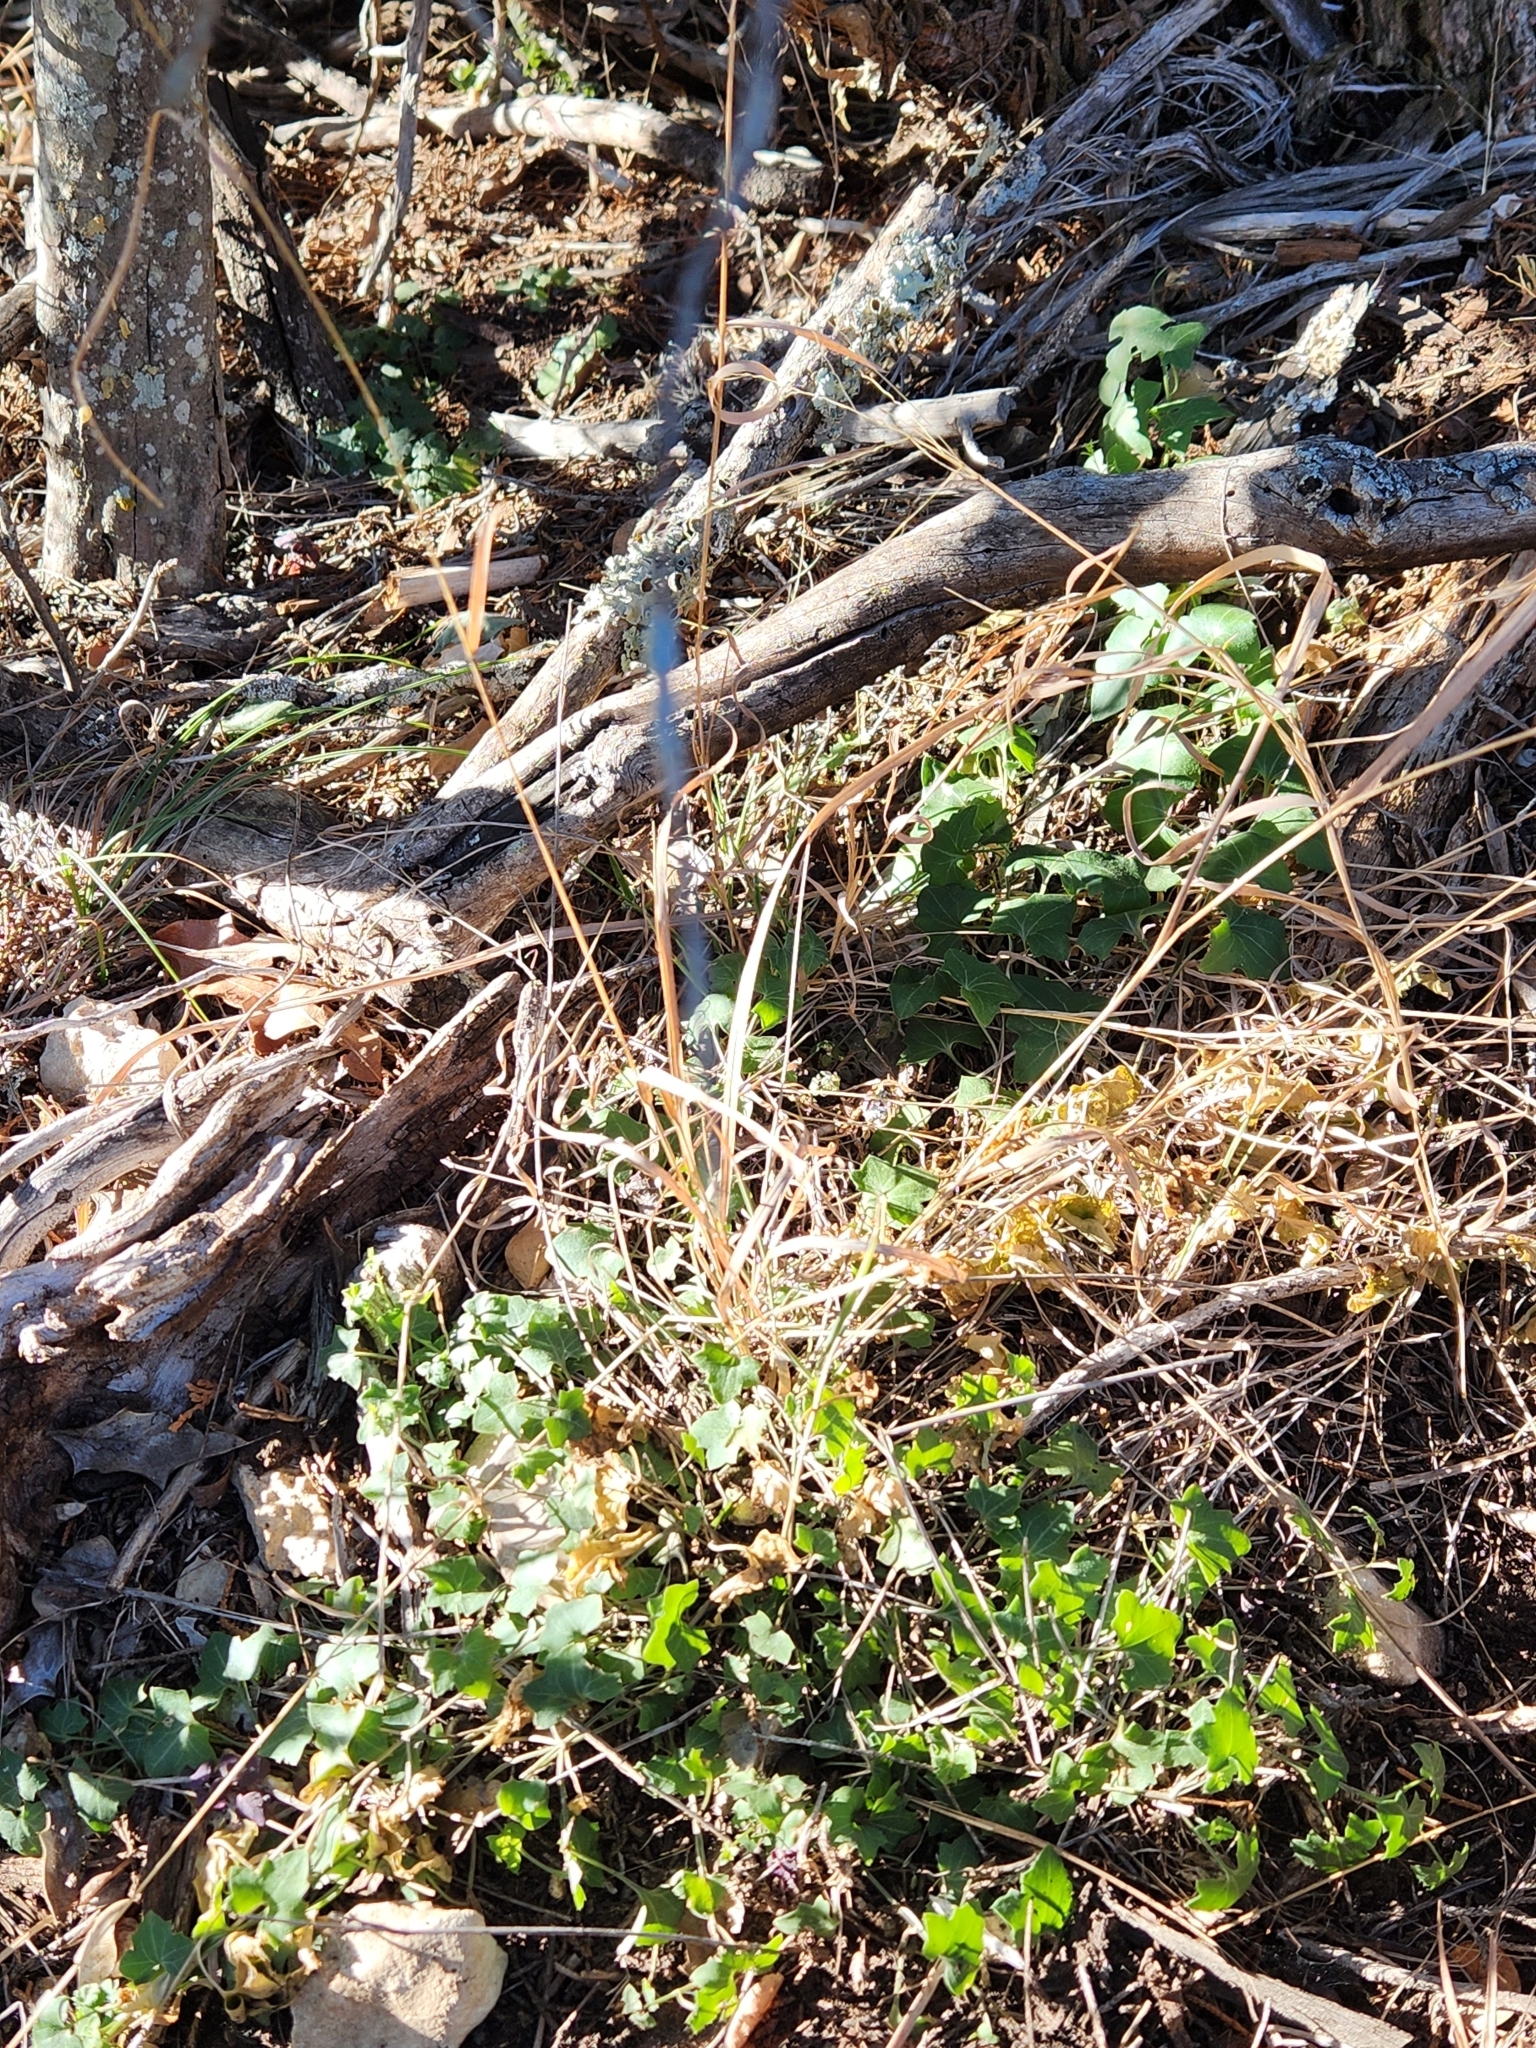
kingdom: Plantae
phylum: Tracheophyta
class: Magnoliopsida
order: Lamiales
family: Plantaginaceae
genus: Maurandella
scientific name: Maurandella antirrhiniflora
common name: Violet twining-snapdragon
